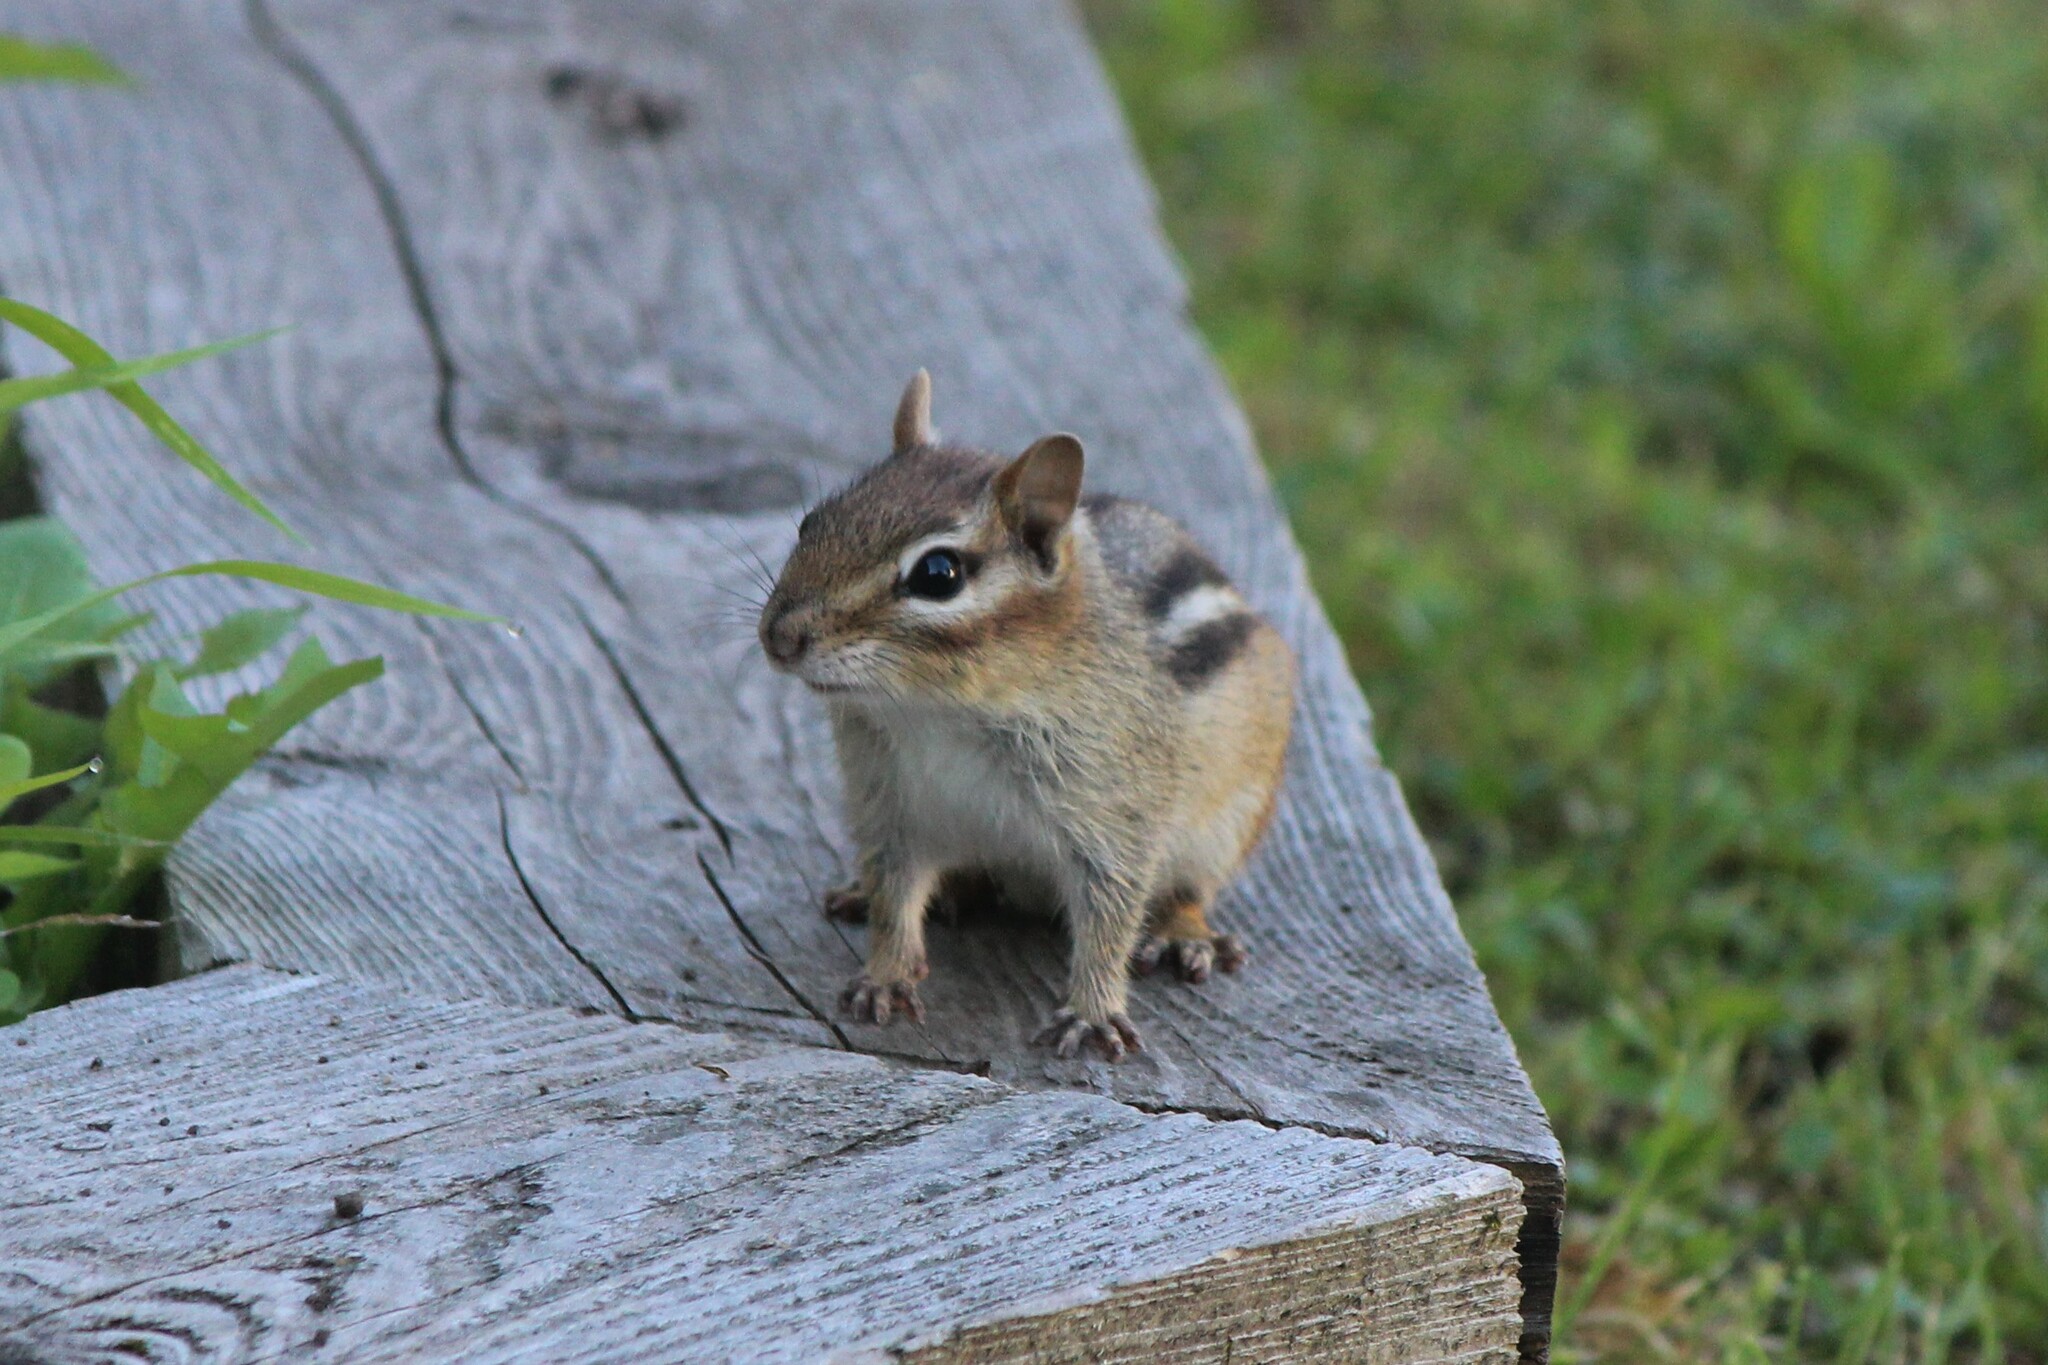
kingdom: Animalia
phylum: Chordata
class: Mammalia
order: Rodentia
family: Sciuridae
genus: Tamias
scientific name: Tamias striatus
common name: Eastern chipmunk
